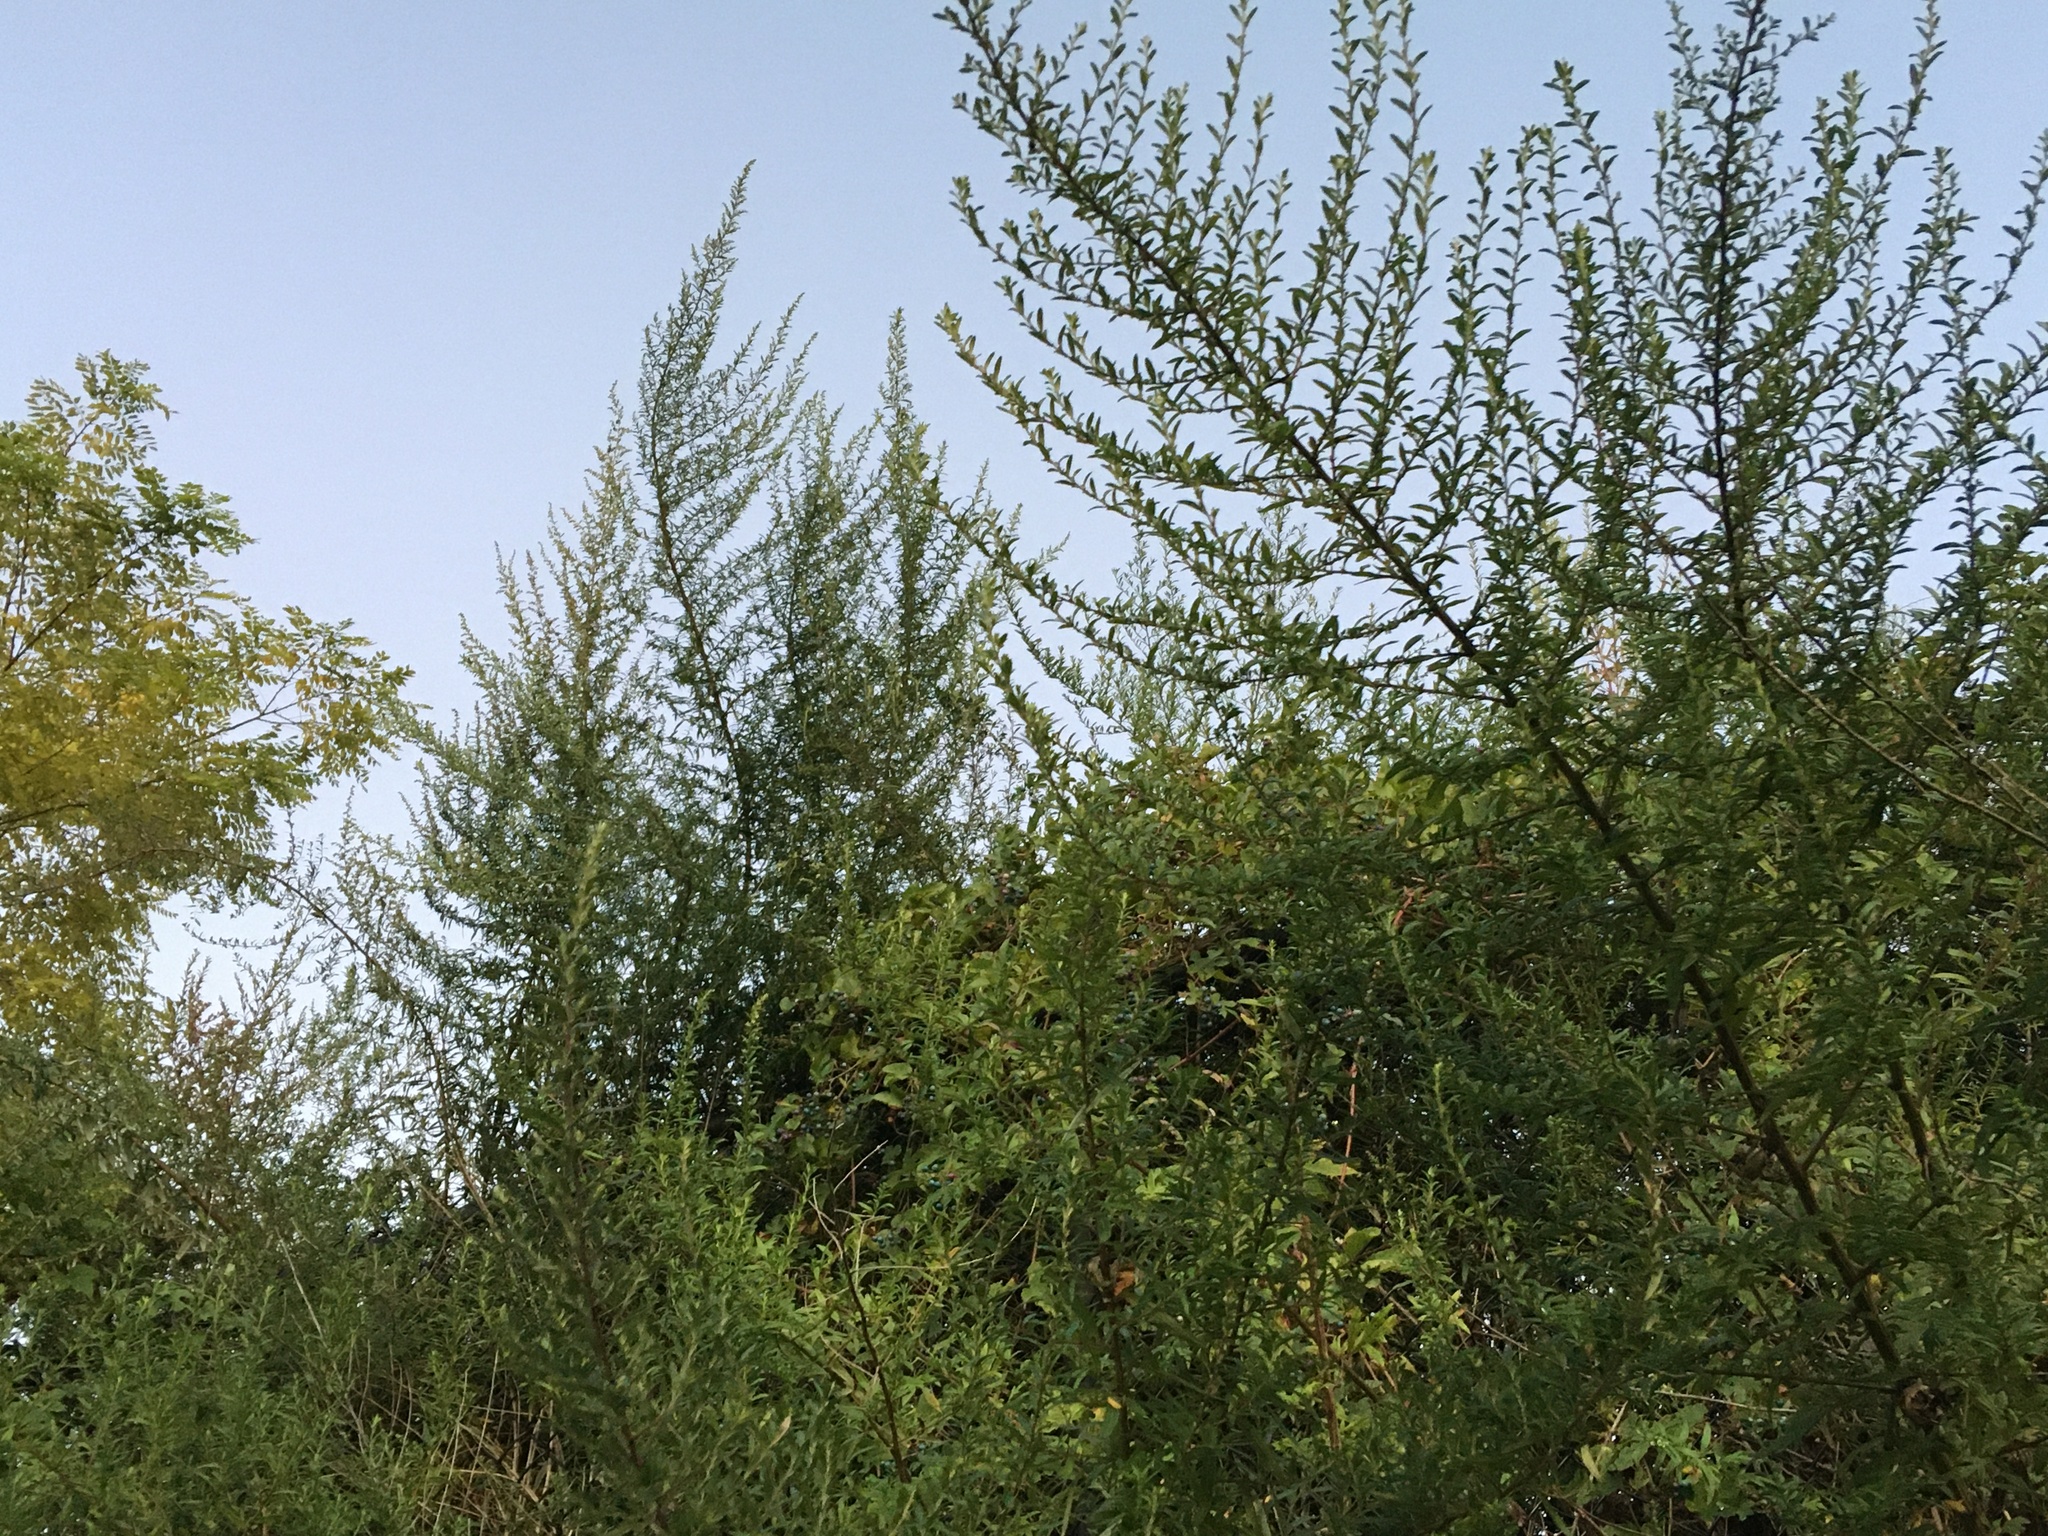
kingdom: Plantae
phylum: Tracheophyta
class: Magnoliopsida
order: Asterales
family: Asteraceae
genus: Artemisia
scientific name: Artemisia vulgaris
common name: Mugwort
